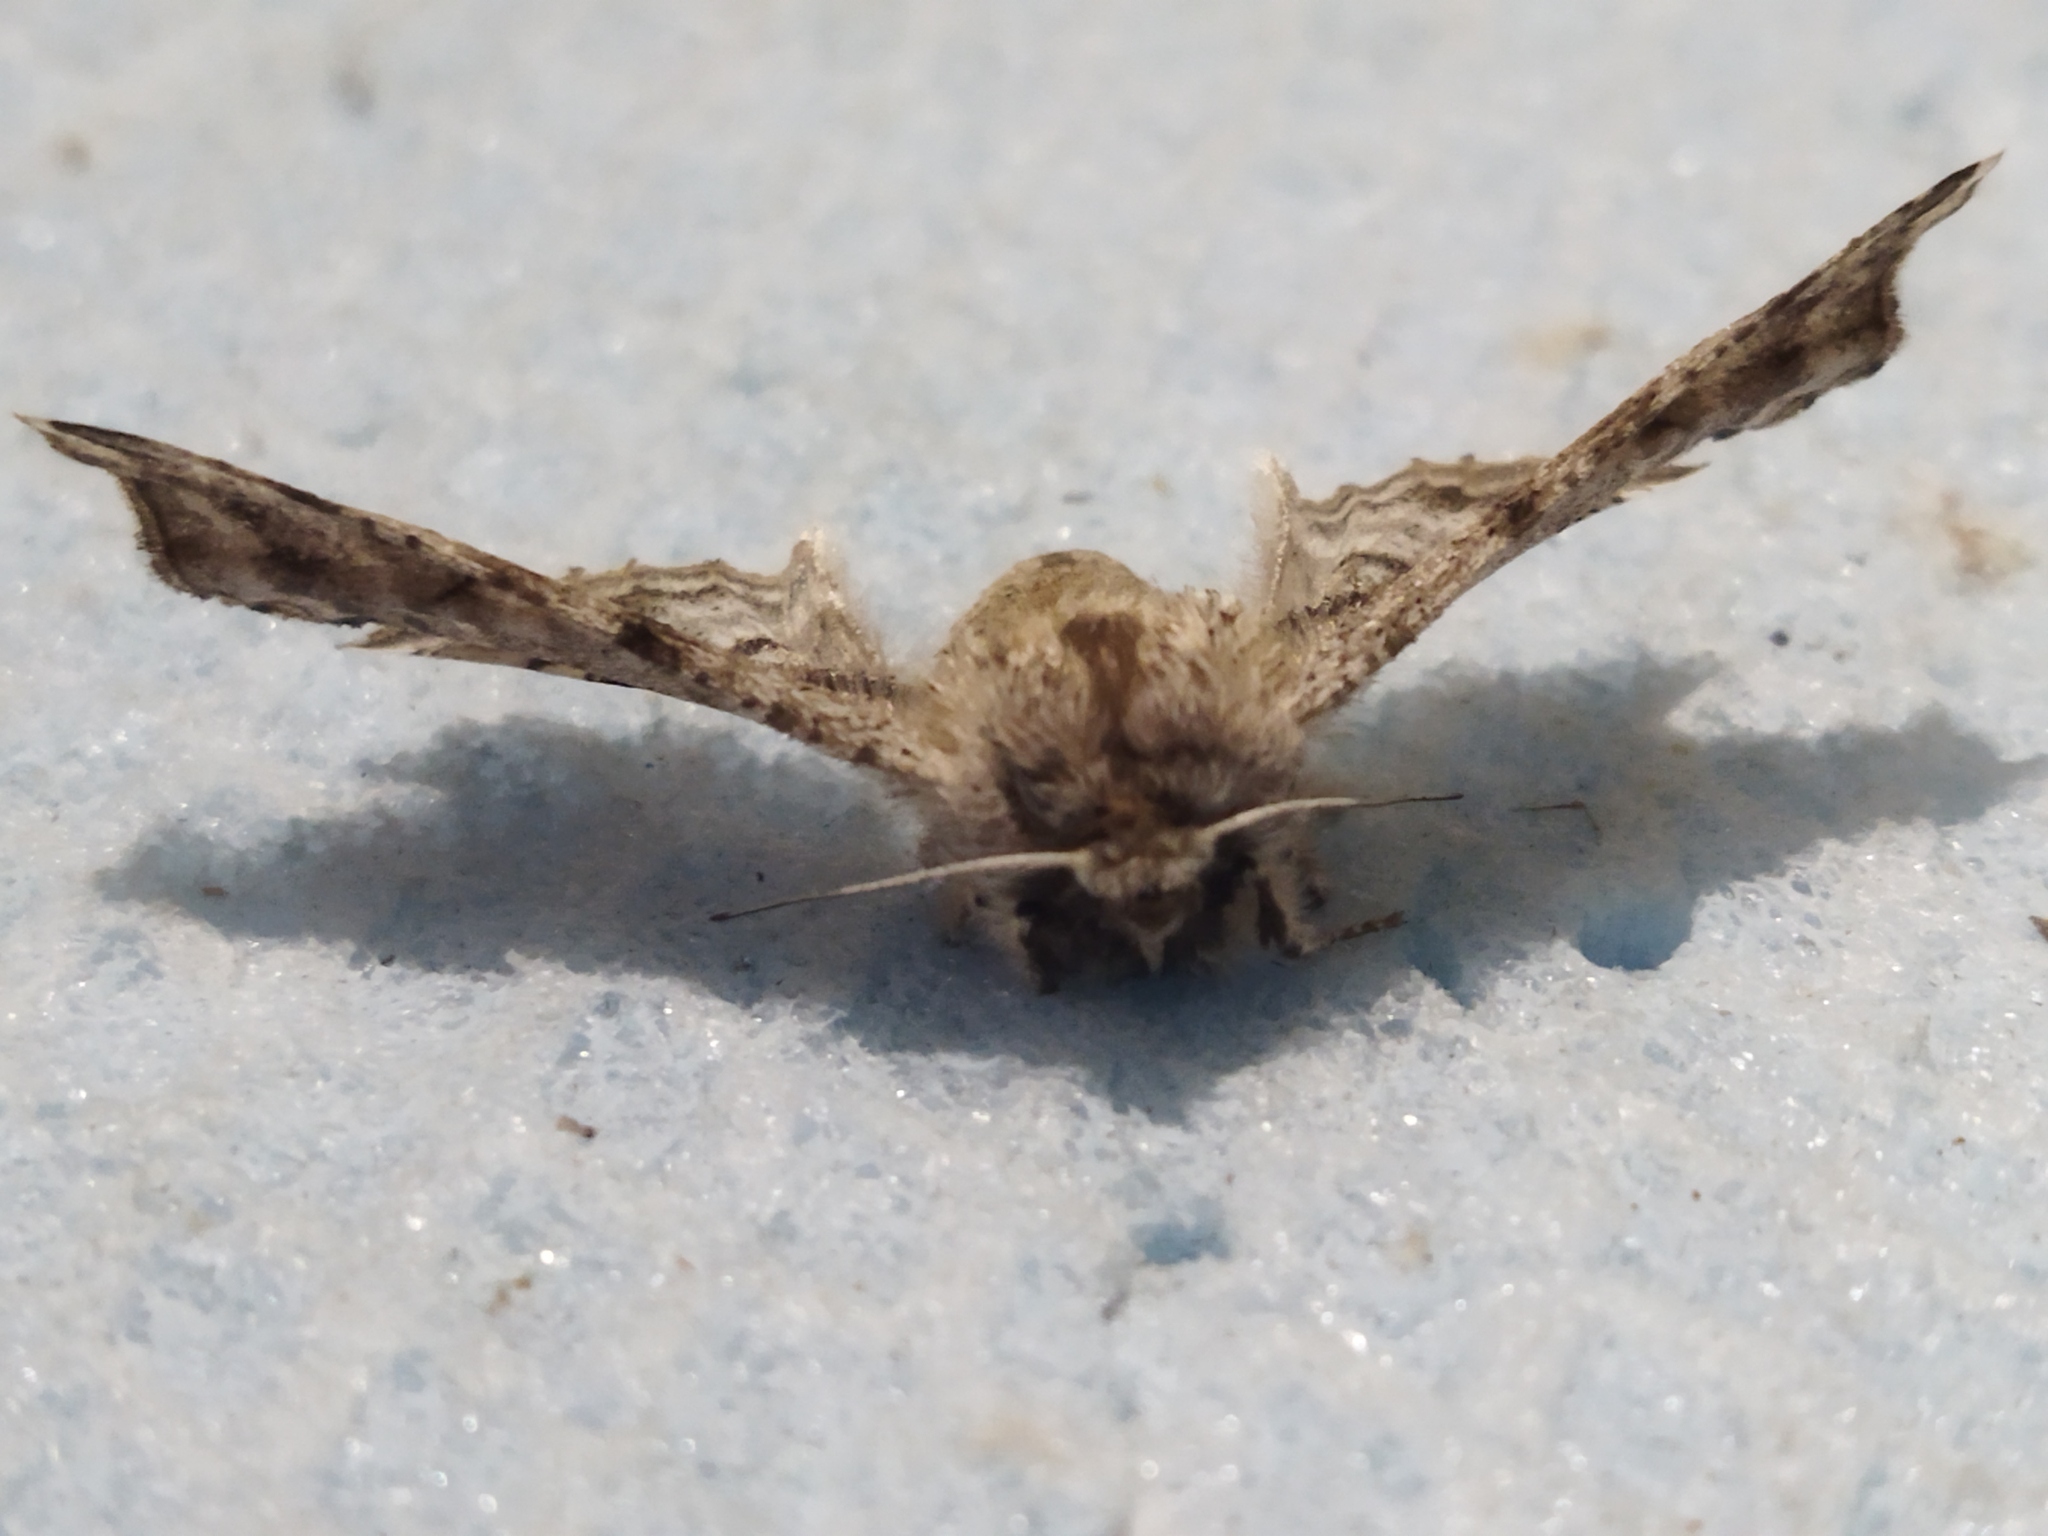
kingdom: Animalia
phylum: Arthropoda
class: Insecta
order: Lepidoptera
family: Geometridae
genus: Apochima
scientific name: Apochima flabellaria
